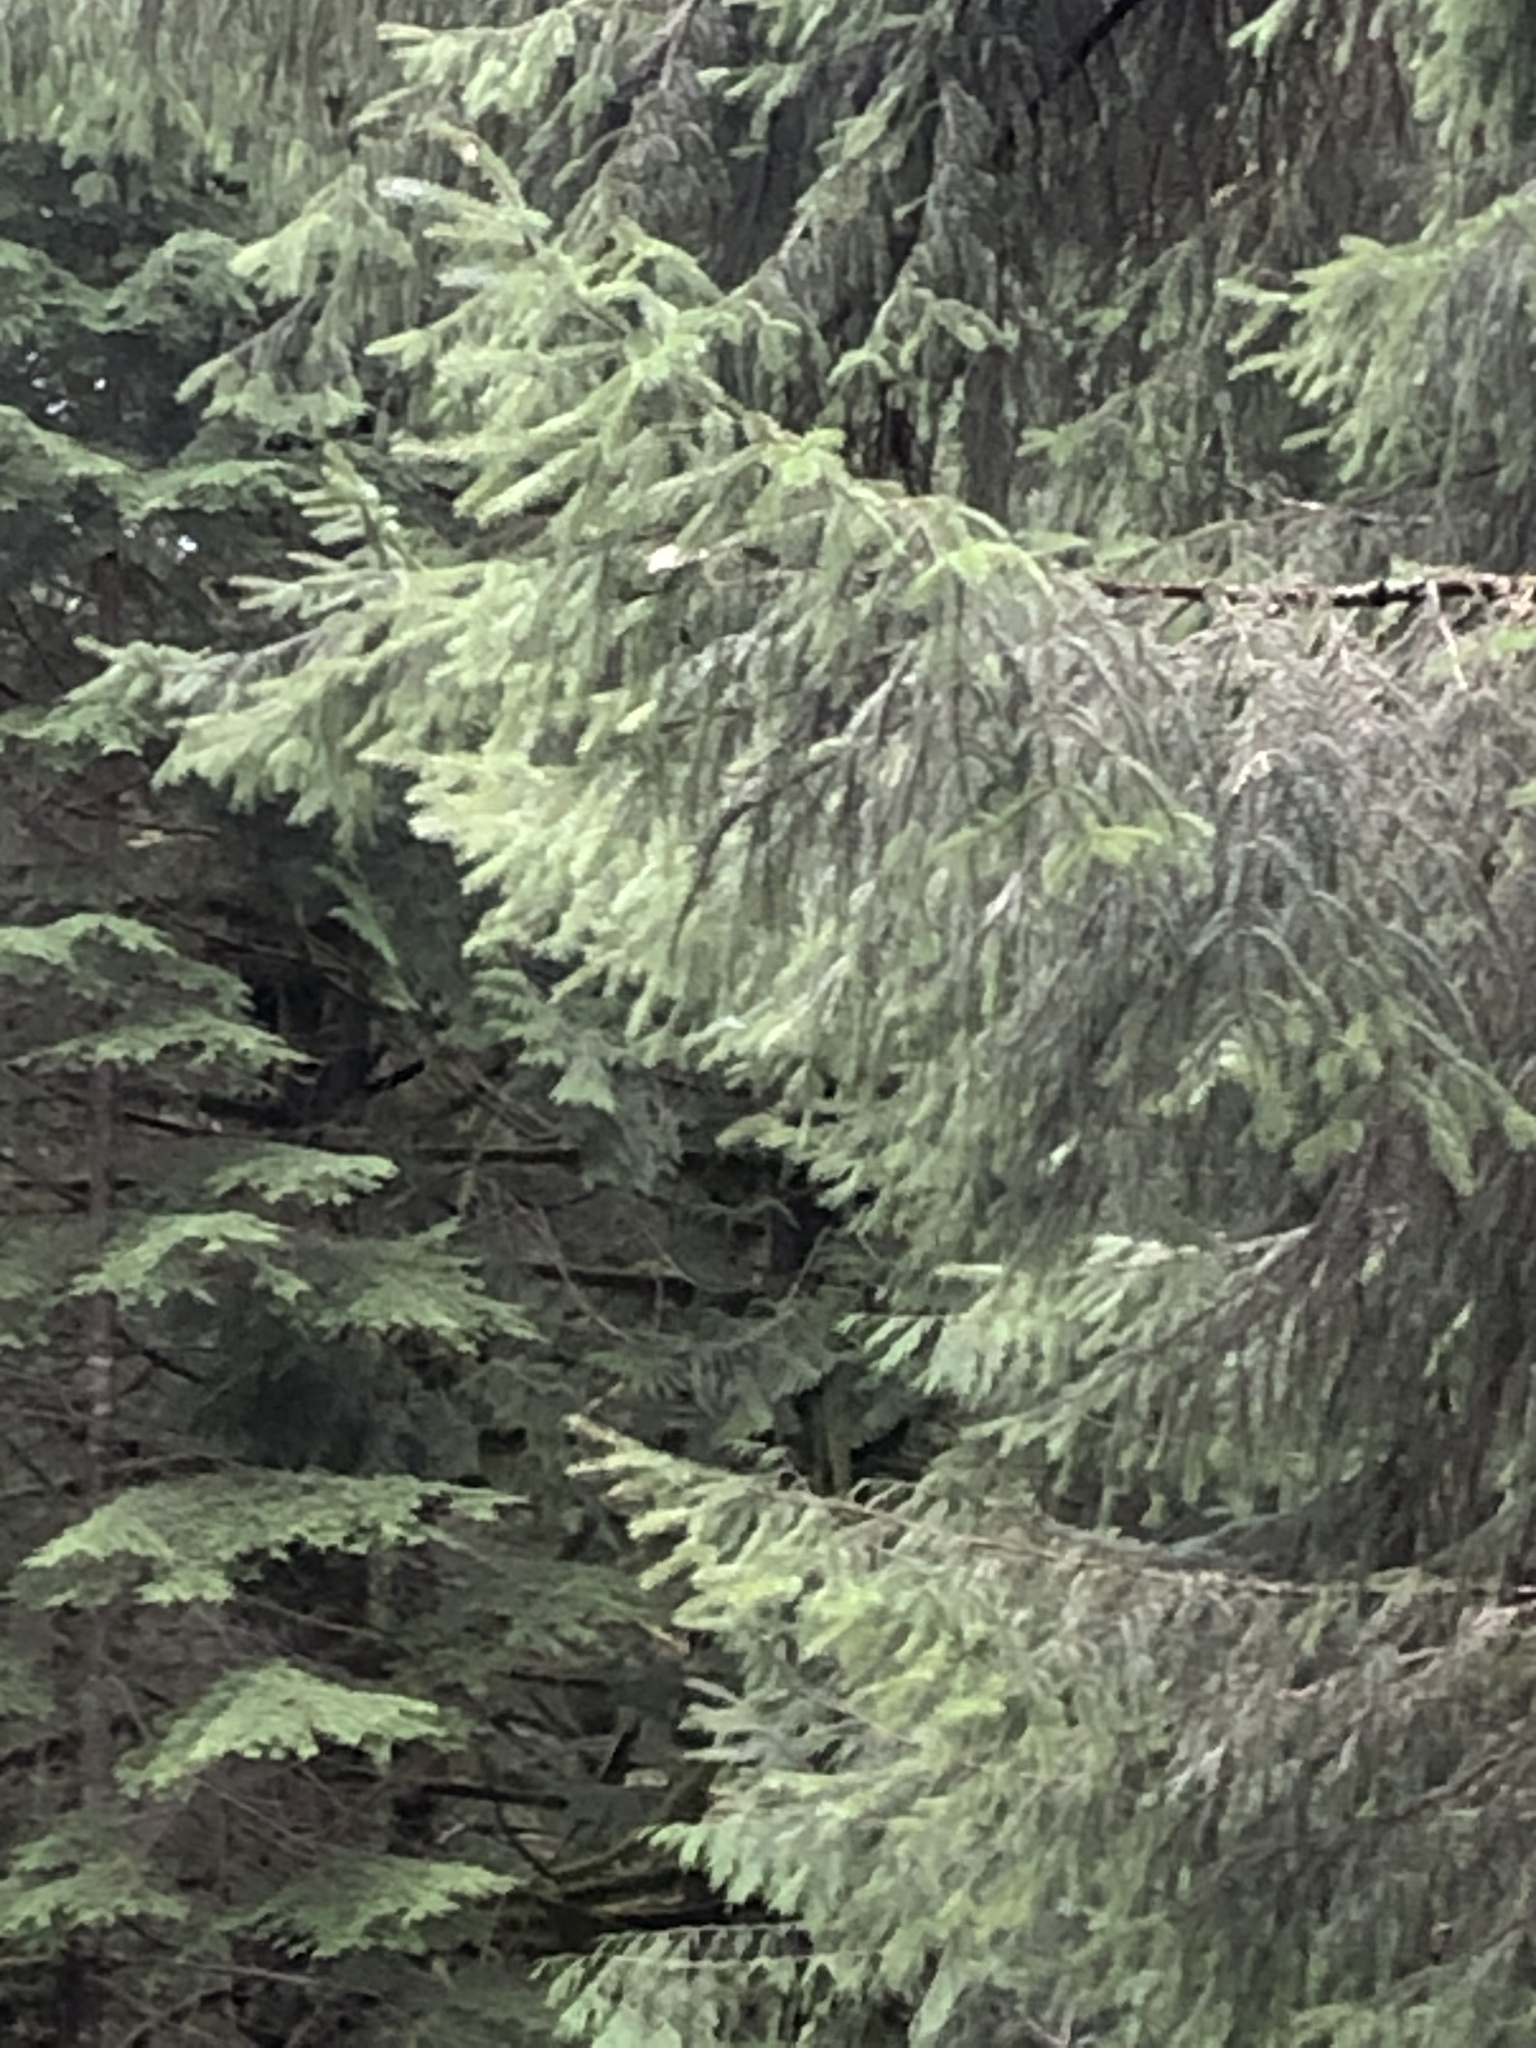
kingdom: Plantae
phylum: Tracheophyta
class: Pinopsida
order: Pinales
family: Pinaceae
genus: Picea
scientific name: Picea sitchensis
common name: Sitka spruce
